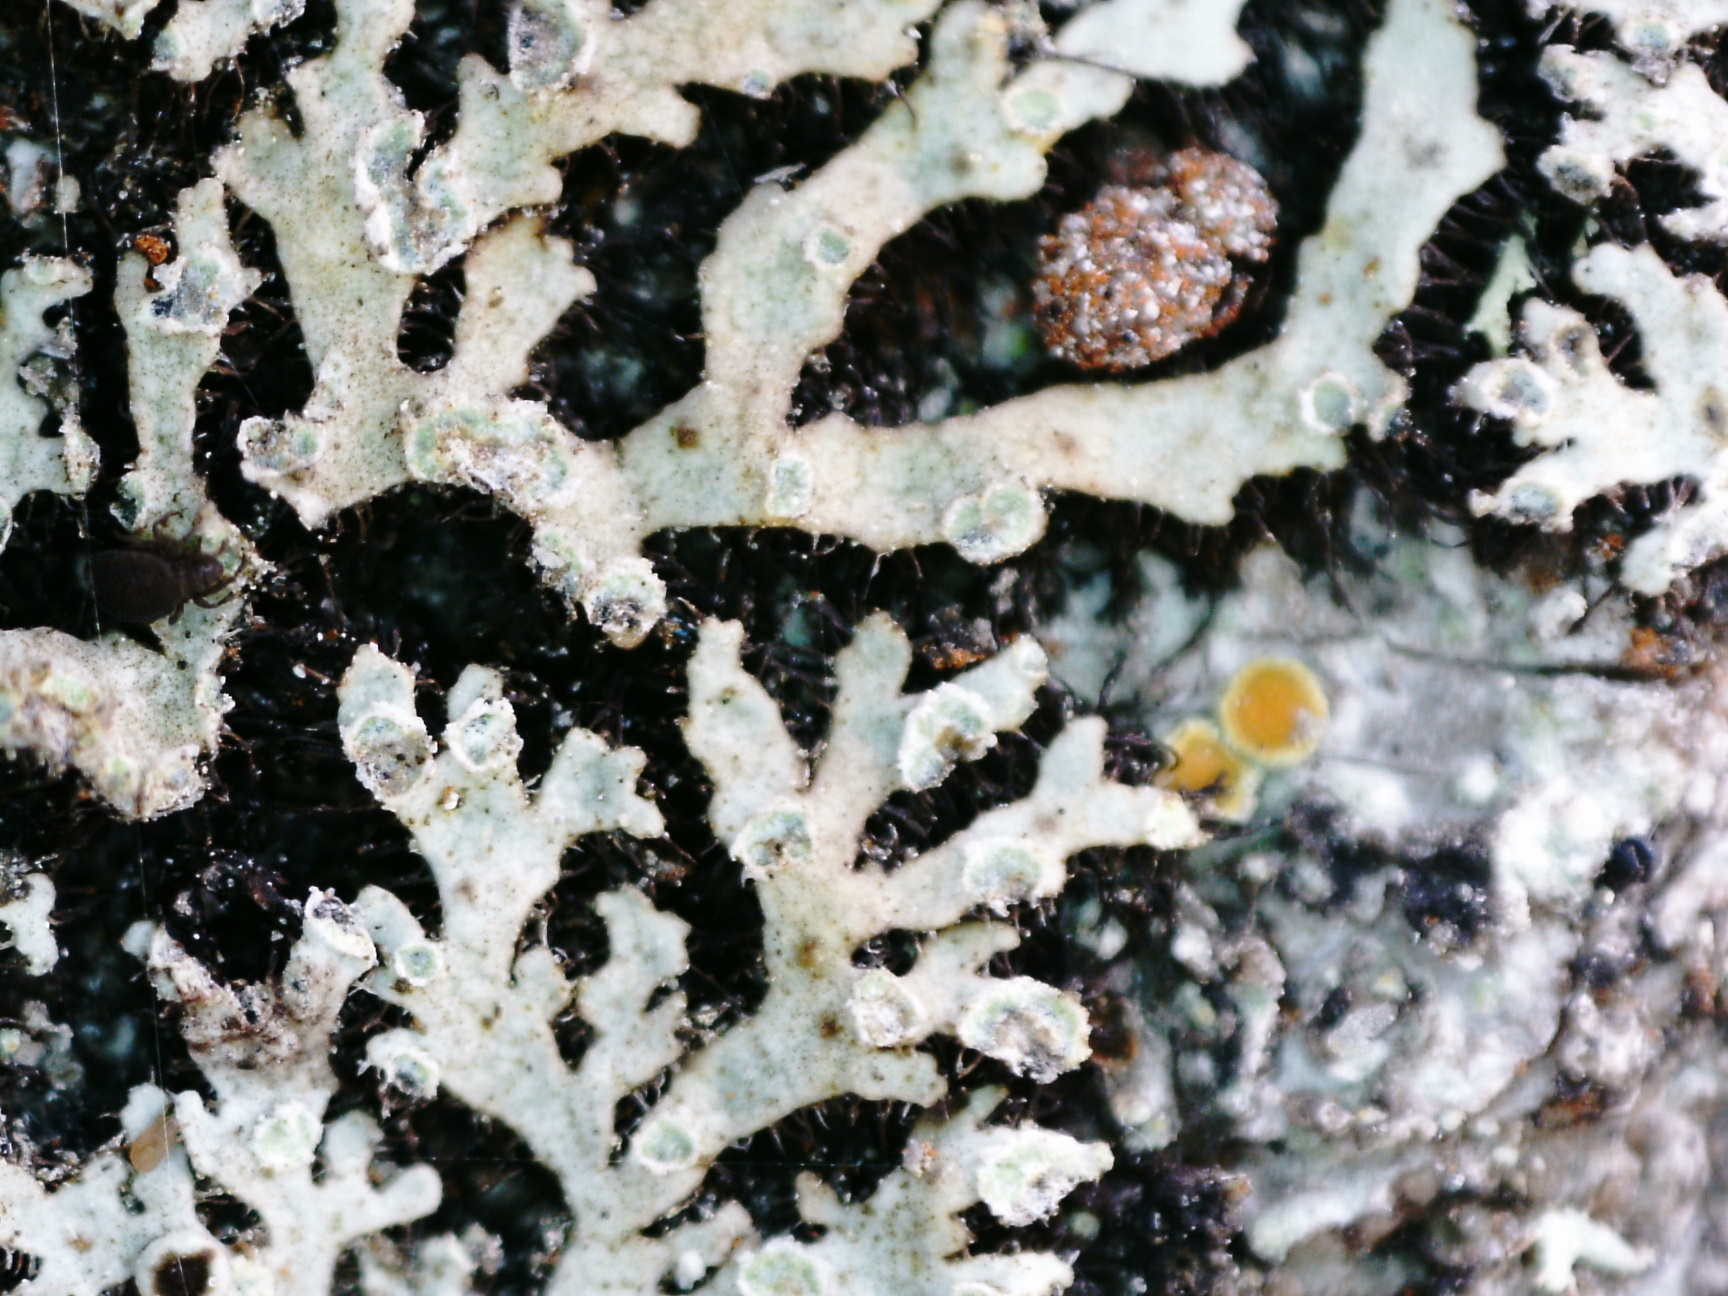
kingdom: Fungi
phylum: Ascomycota
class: Lecanoromycetes
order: Caliciales
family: Physciaceae
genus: Phaeophyscia
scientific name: Phaeophyscia orbicularis
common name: Mealy shadow lichen
